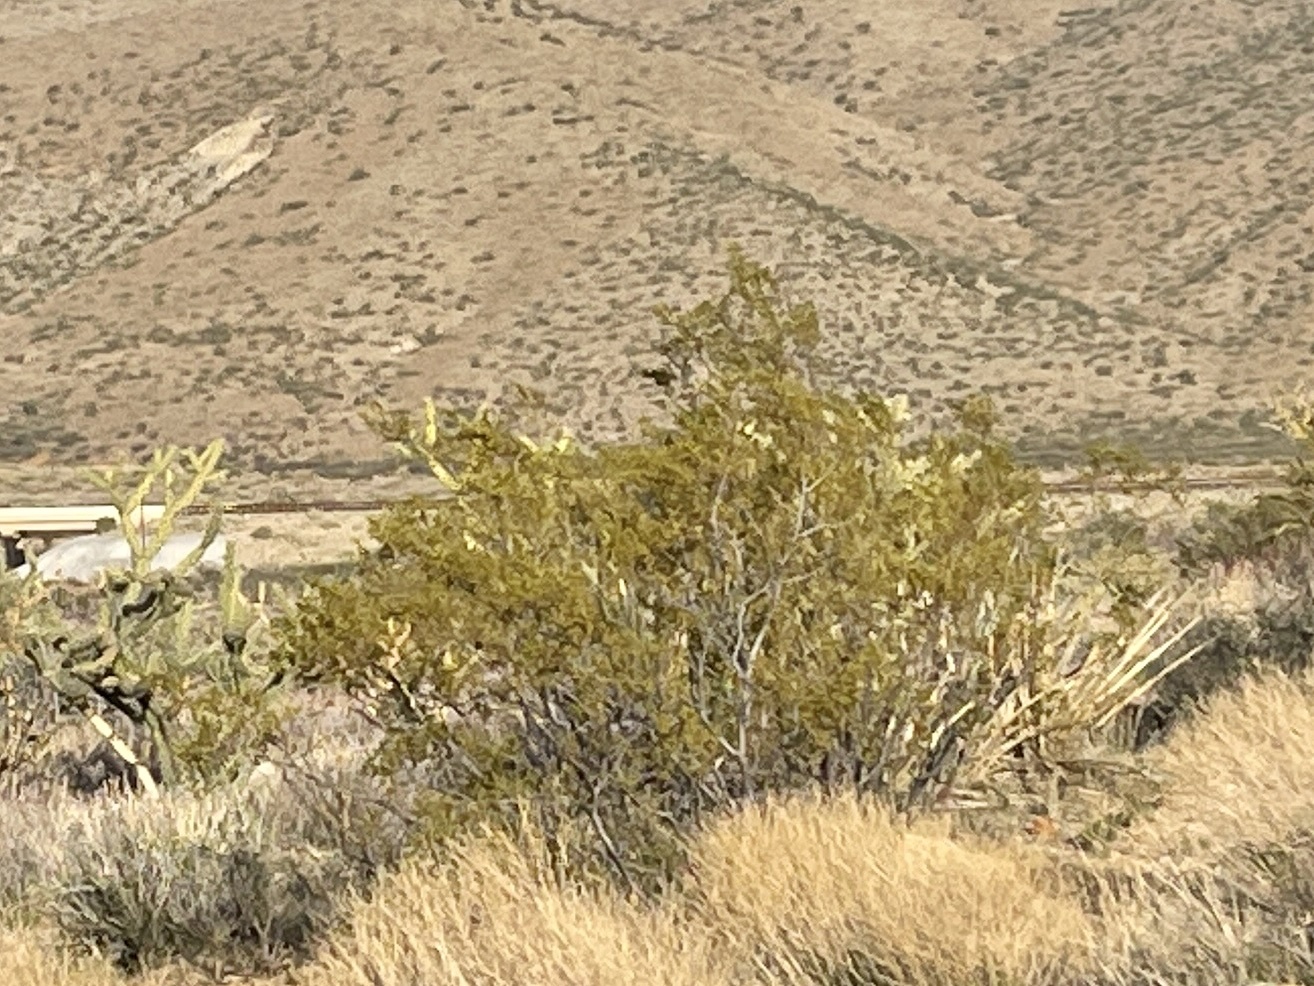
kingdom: Plantae
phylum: Tracheophyta
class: Magnoliopsida
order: Zygophyllales
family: Zygophyllaceae
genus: Larrea
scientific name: Larrea tridentata
